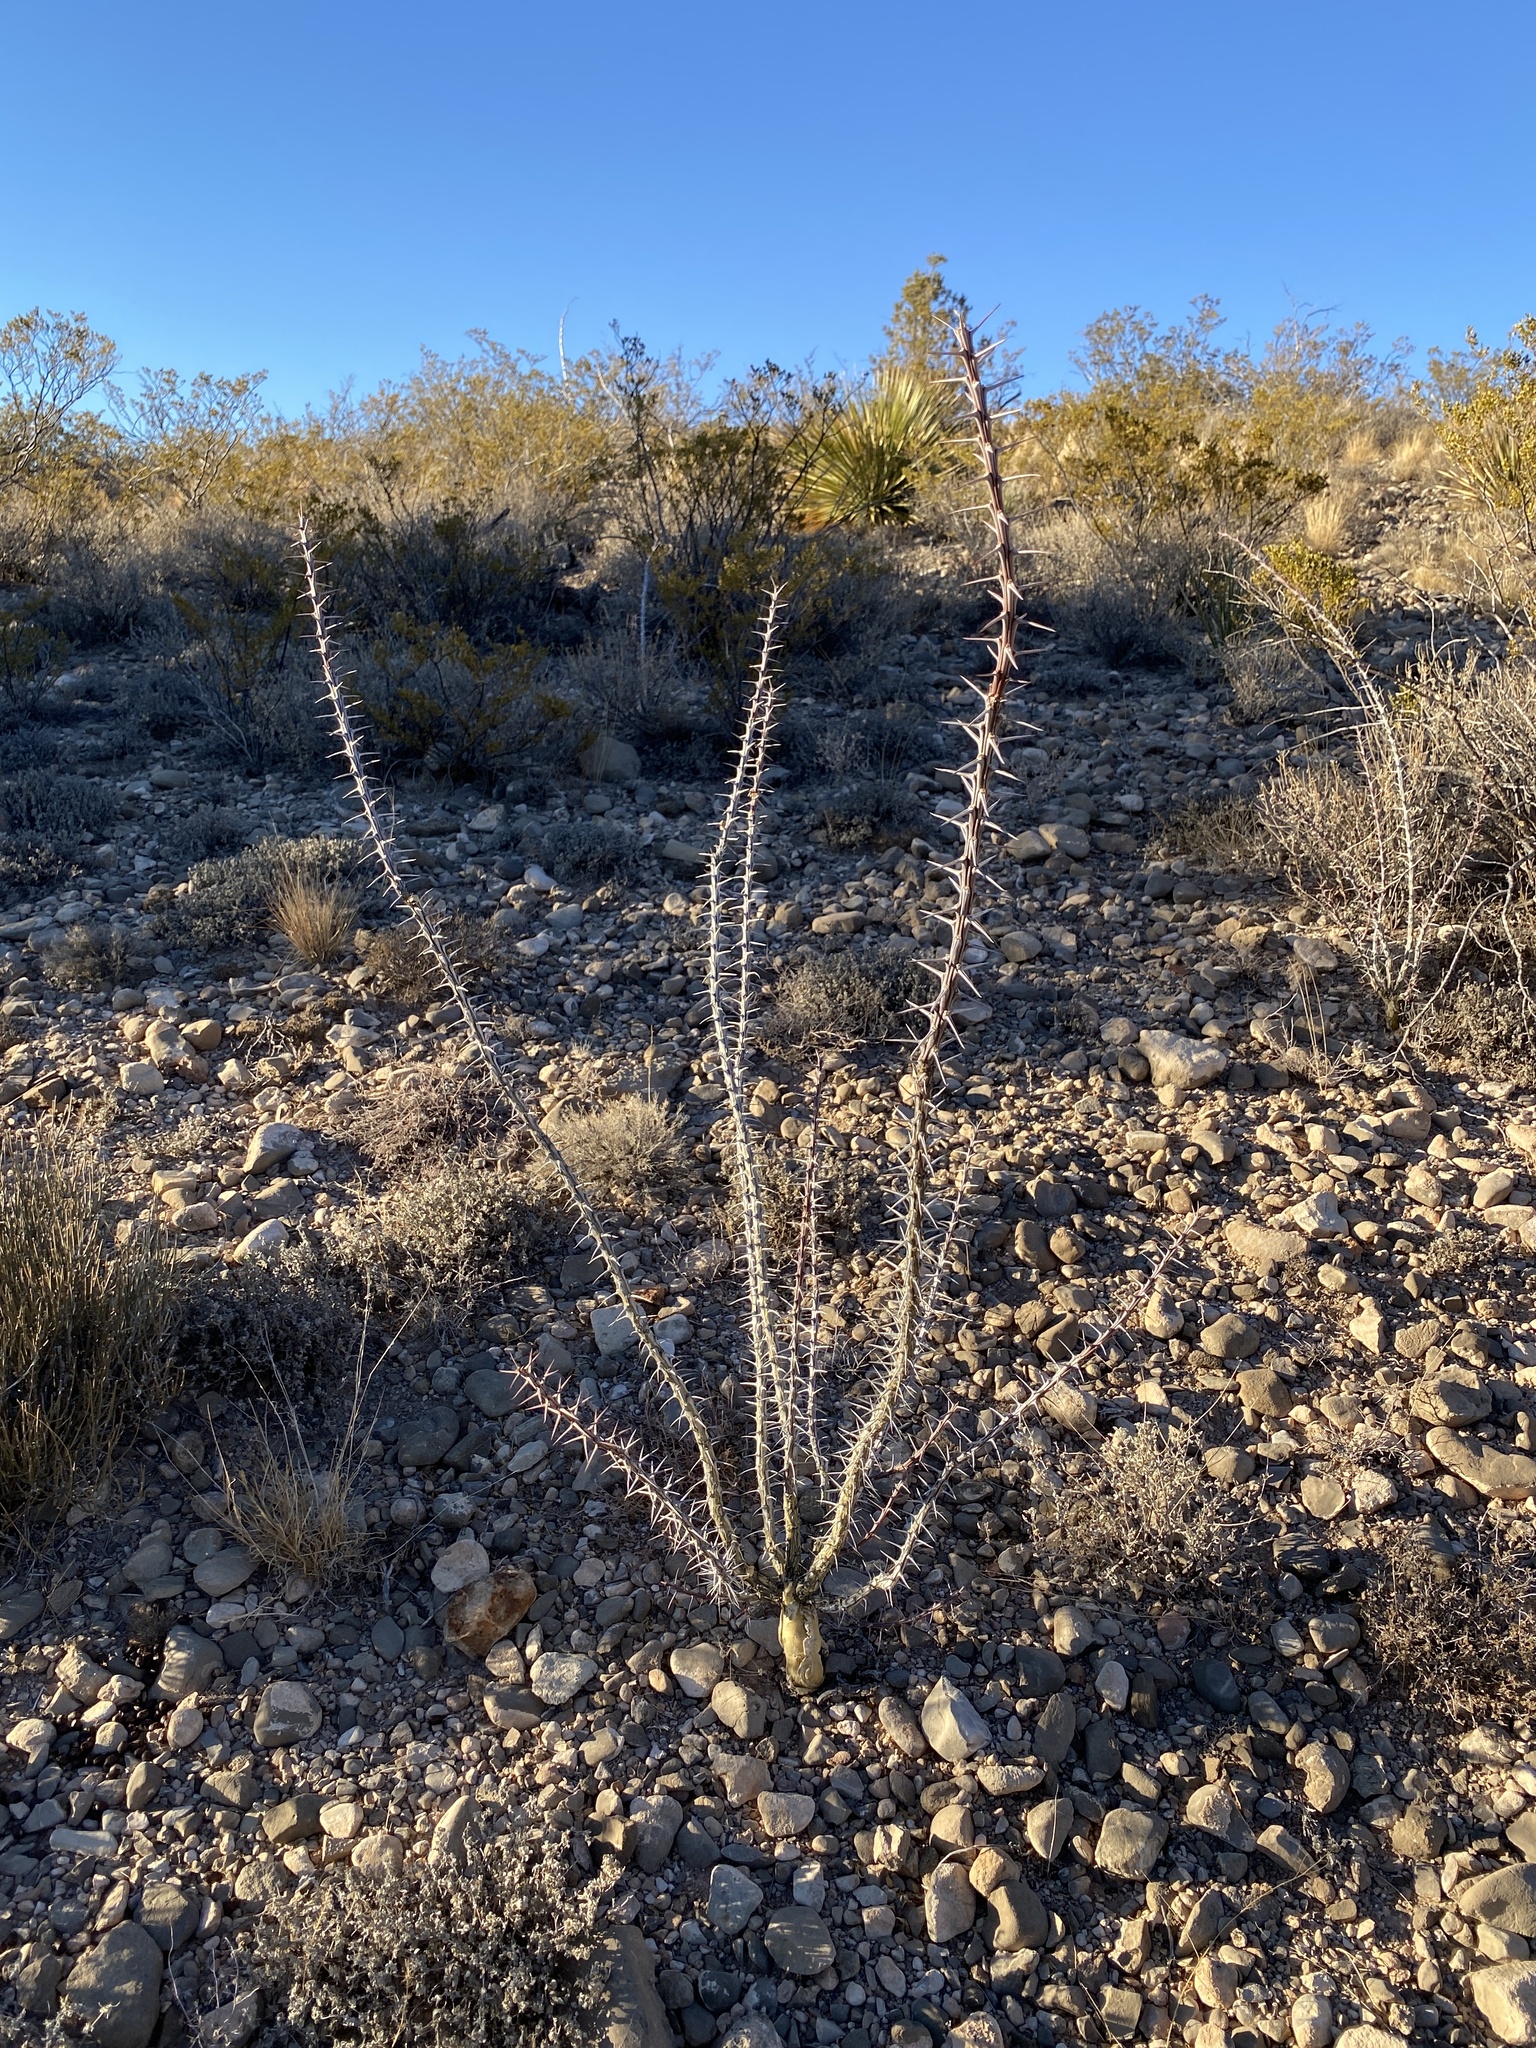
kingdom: Plantae
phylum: Tracheophyta
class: Magnoliopsida
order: Ericales
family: Fouquieriaceae
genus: Fouquieria
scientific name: Fouquieria splendens
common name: Vine-cactus
